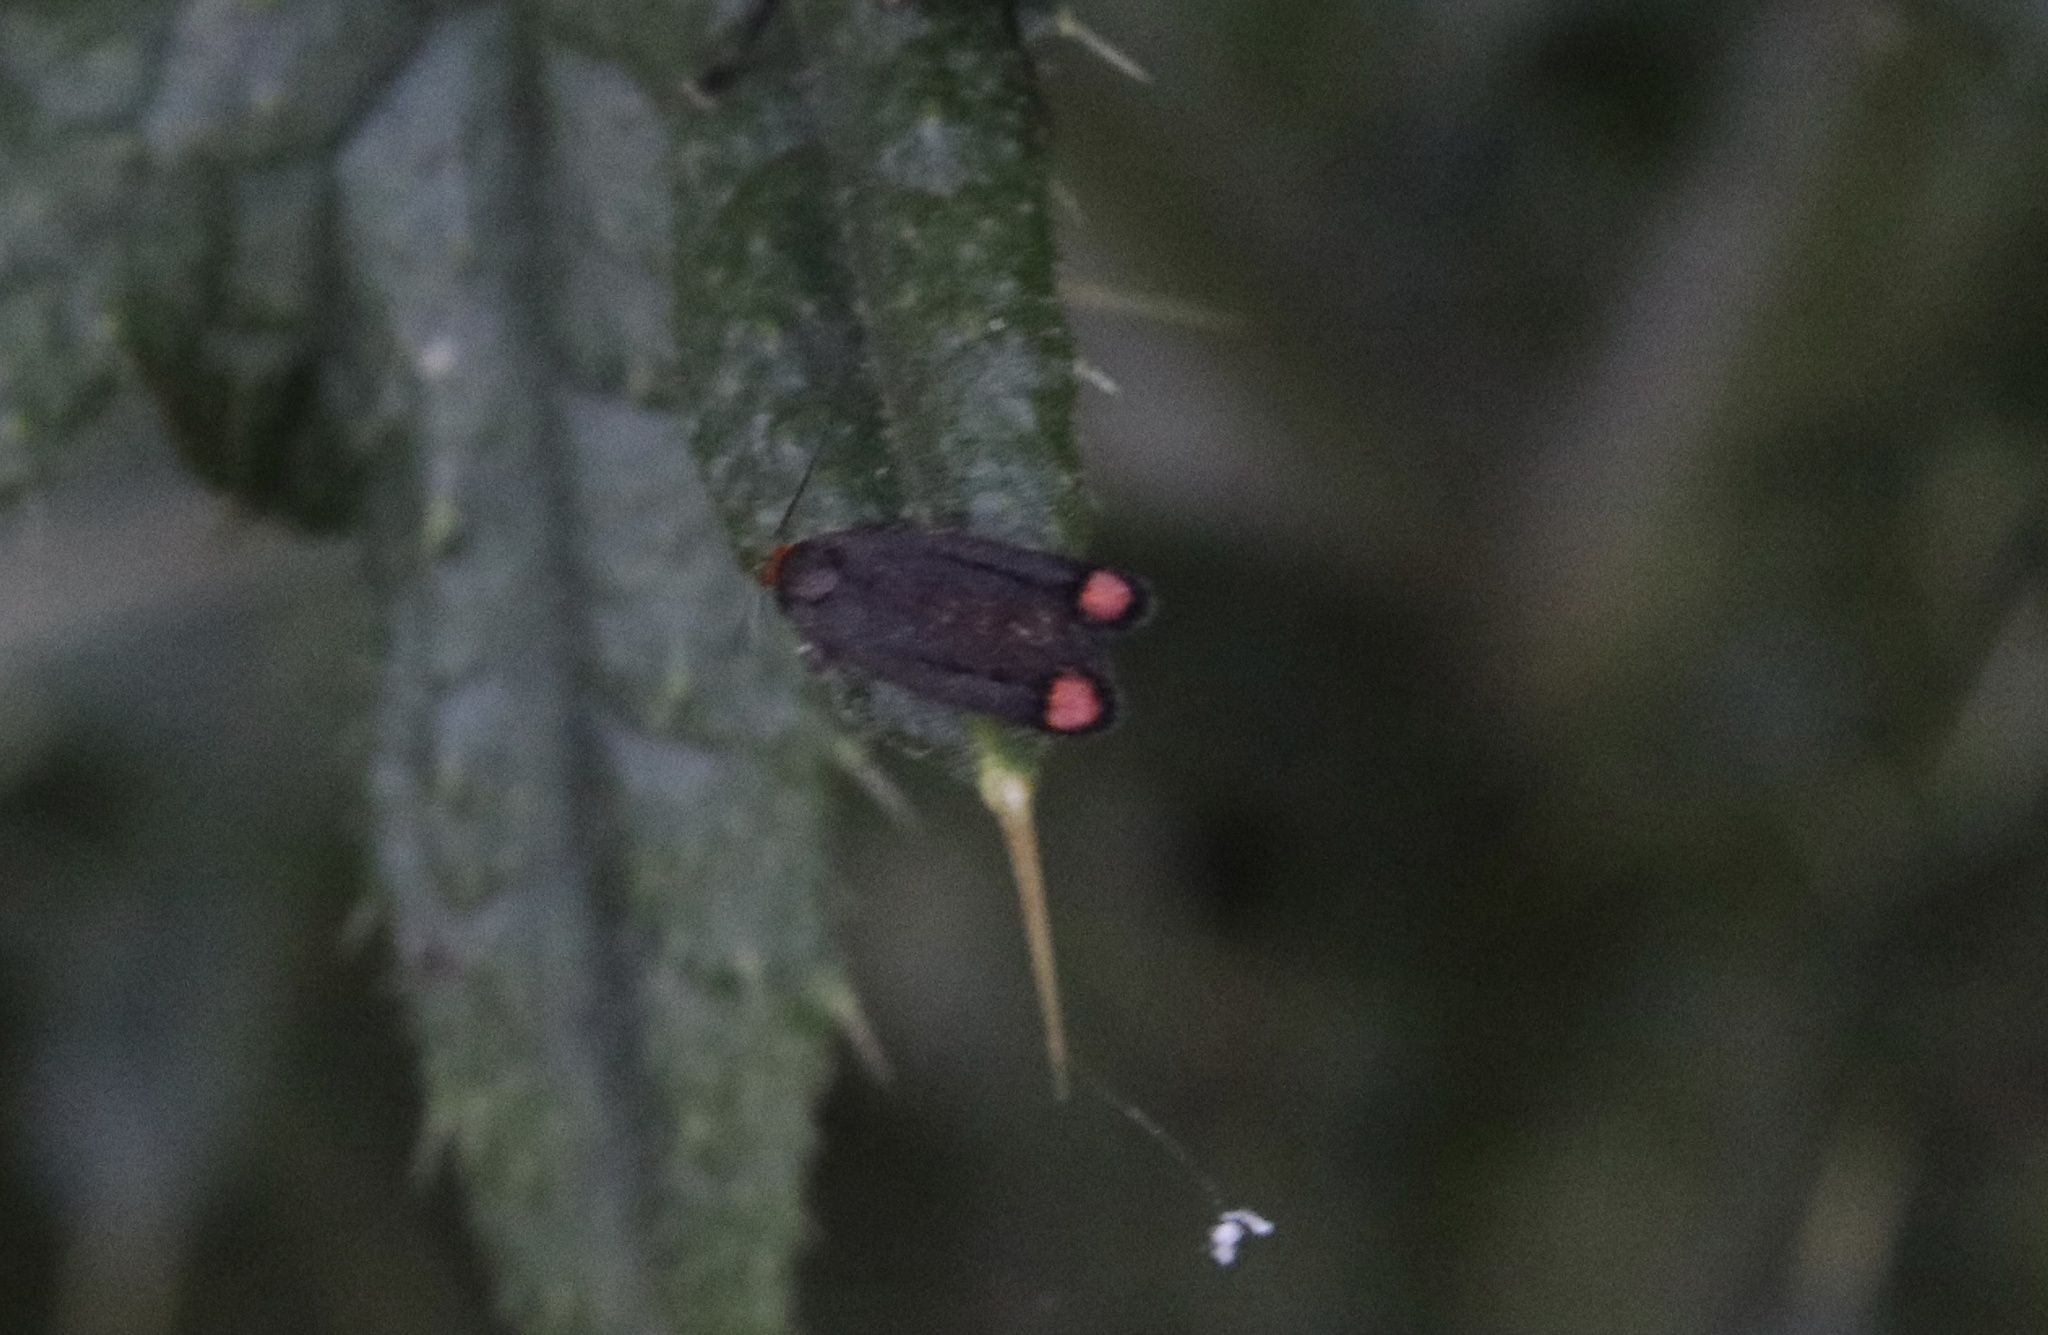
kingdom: Animalia
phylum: Arthropoda
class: Insecta
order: Lepidoptera
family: Oecophoridae
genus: Lelita
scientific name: Lelita acmaea
